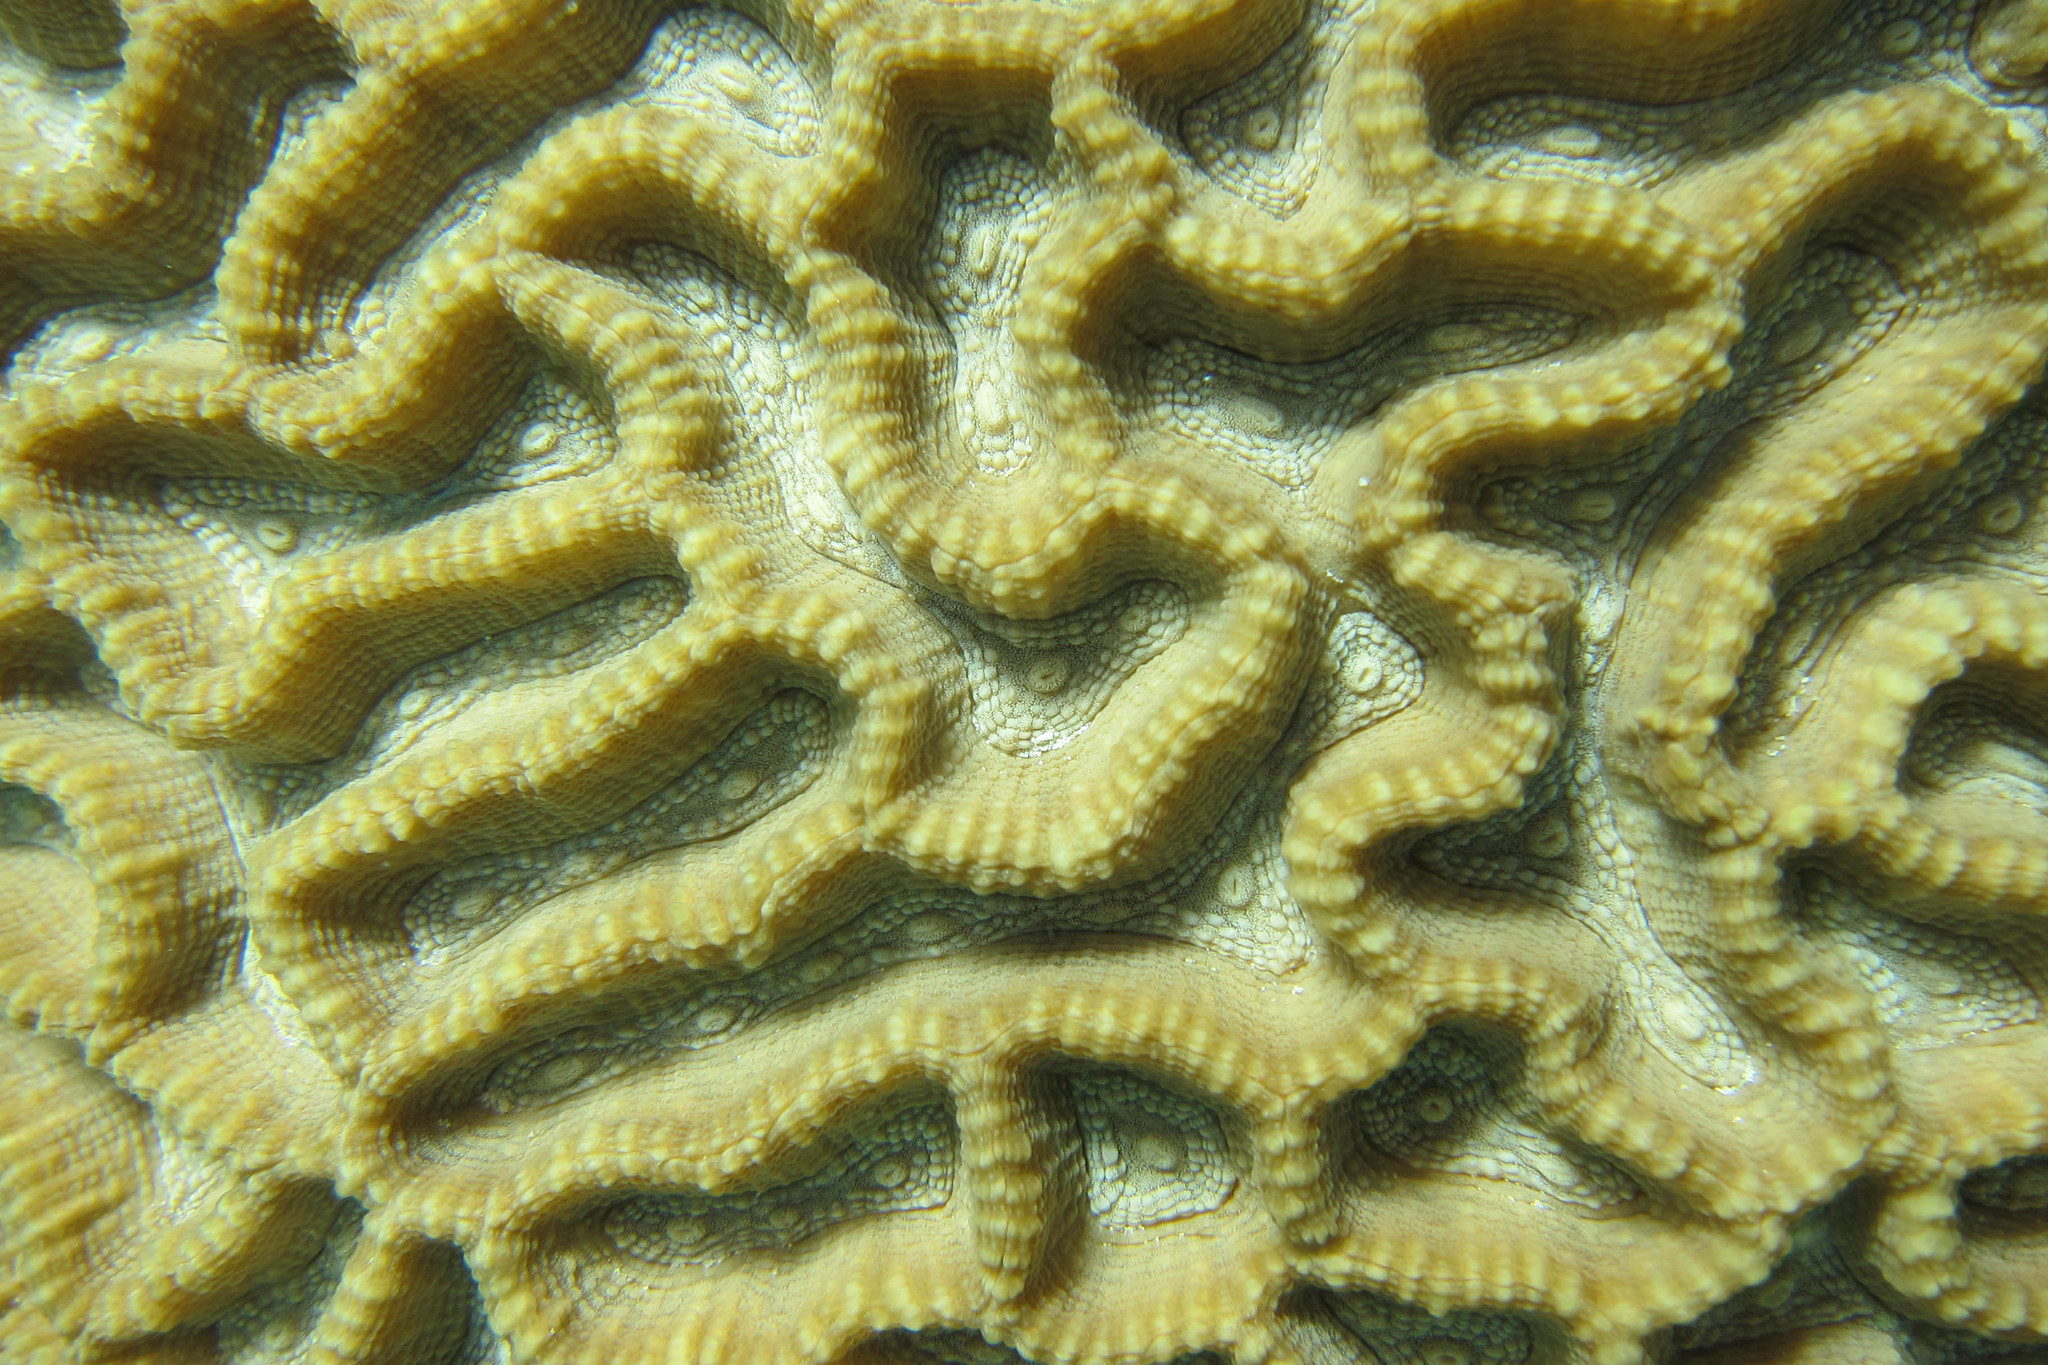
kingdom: Animalia
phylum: Cnidaria
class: Anthozoa
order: Scleractinia
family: Merulinidae
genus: Oulophyllia
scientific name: Oulophyllia crispa
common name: Intermediate valley coral
